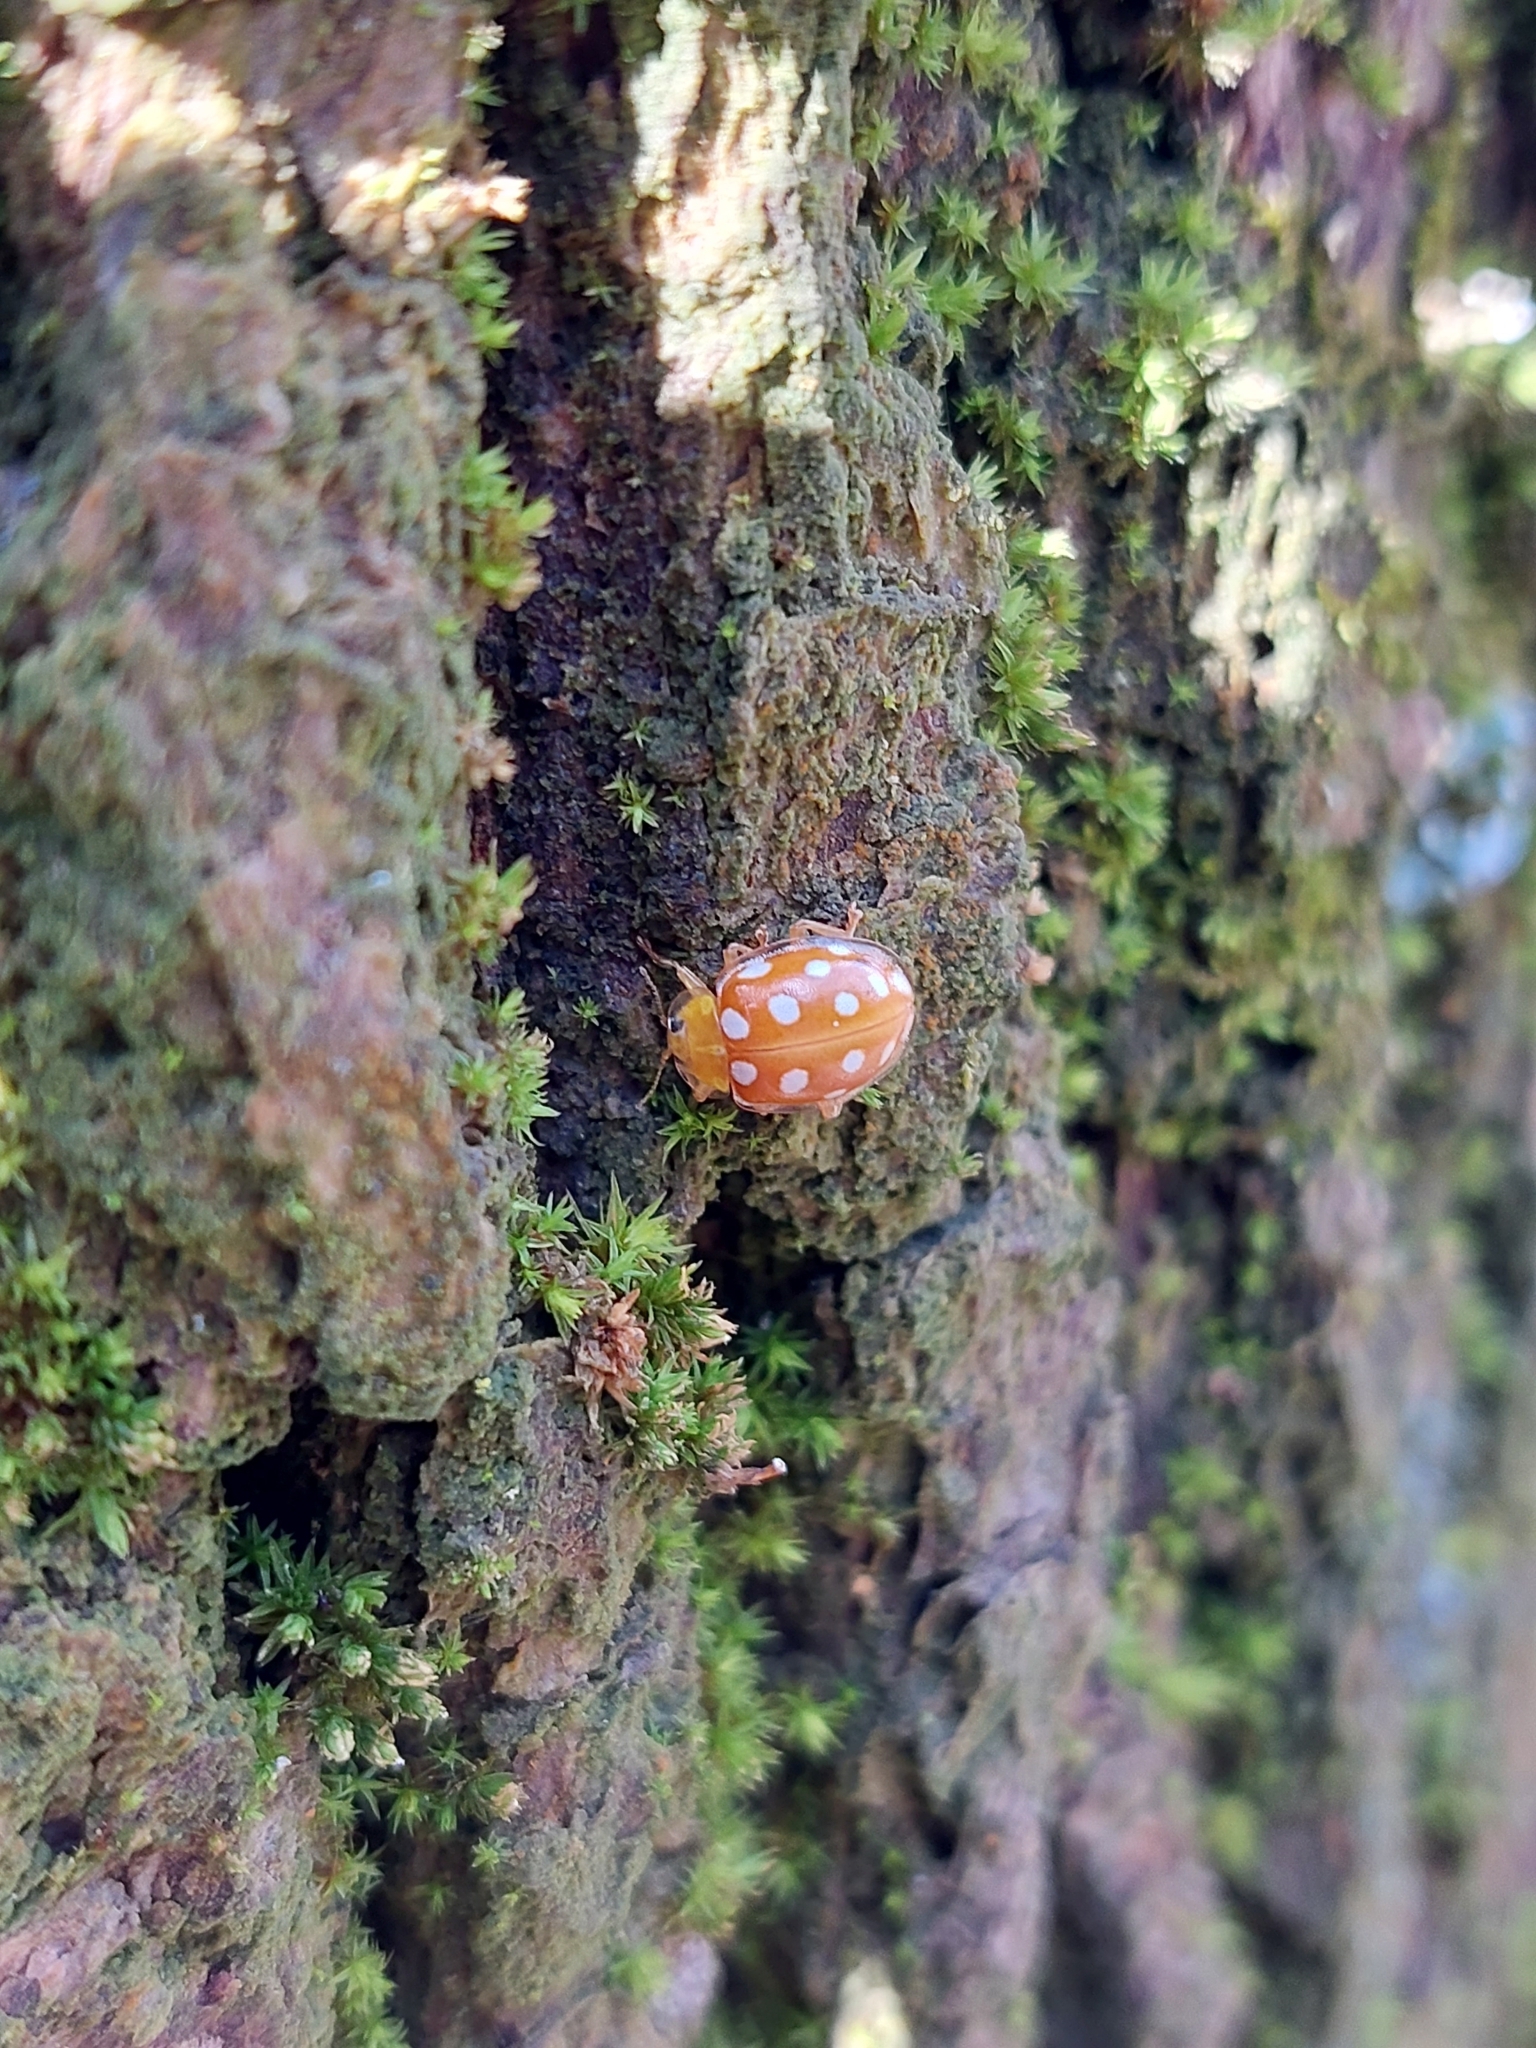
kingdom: Animalia
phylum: Arthropoda
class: Insecta
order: Coleoptera
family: Coccinellidae
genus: Halyzia
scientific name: Halyzia sedecimguttata
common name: Orange ladybird
